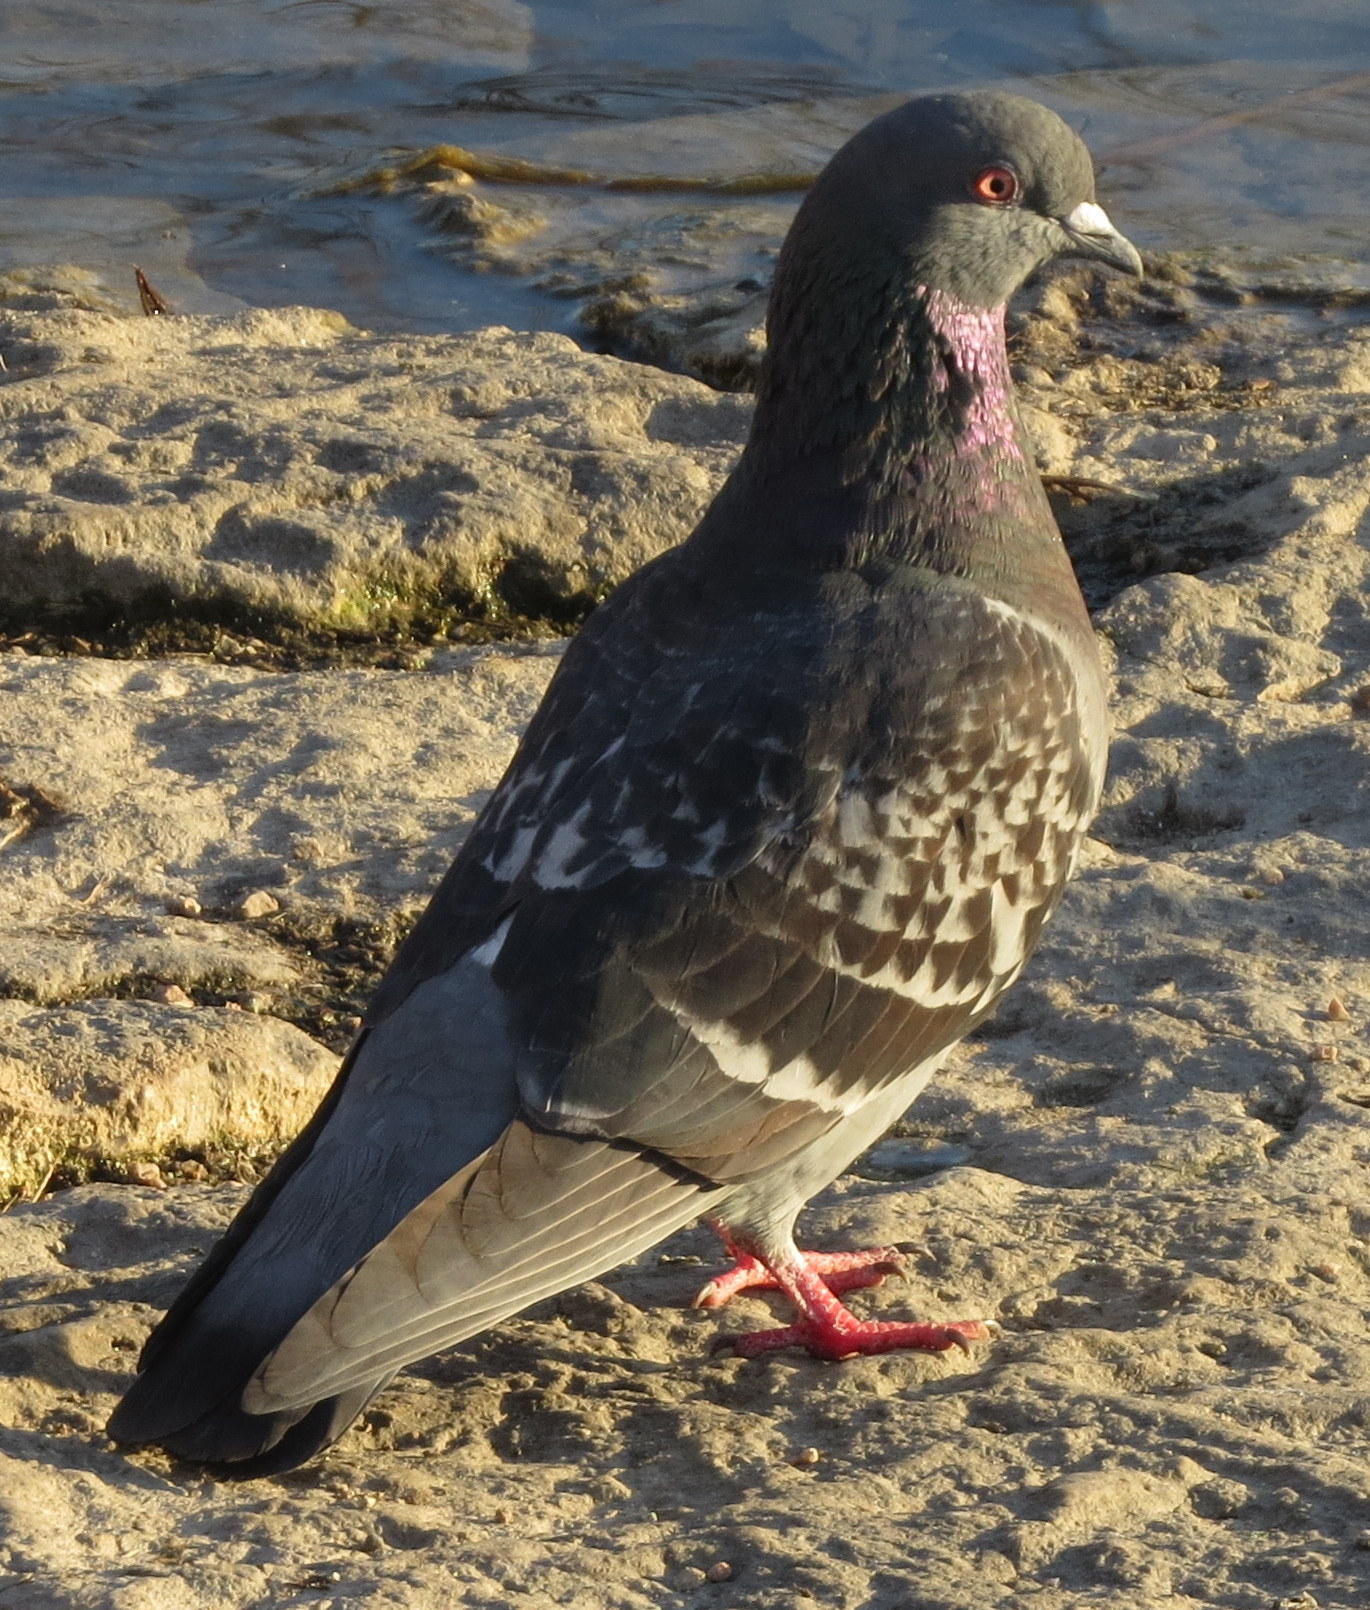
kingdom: Animalia
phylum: Chordata
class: Aves
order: Columbiformes
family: Columbidae
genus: Columba
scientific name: Columba livia
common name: Rock pigeon
